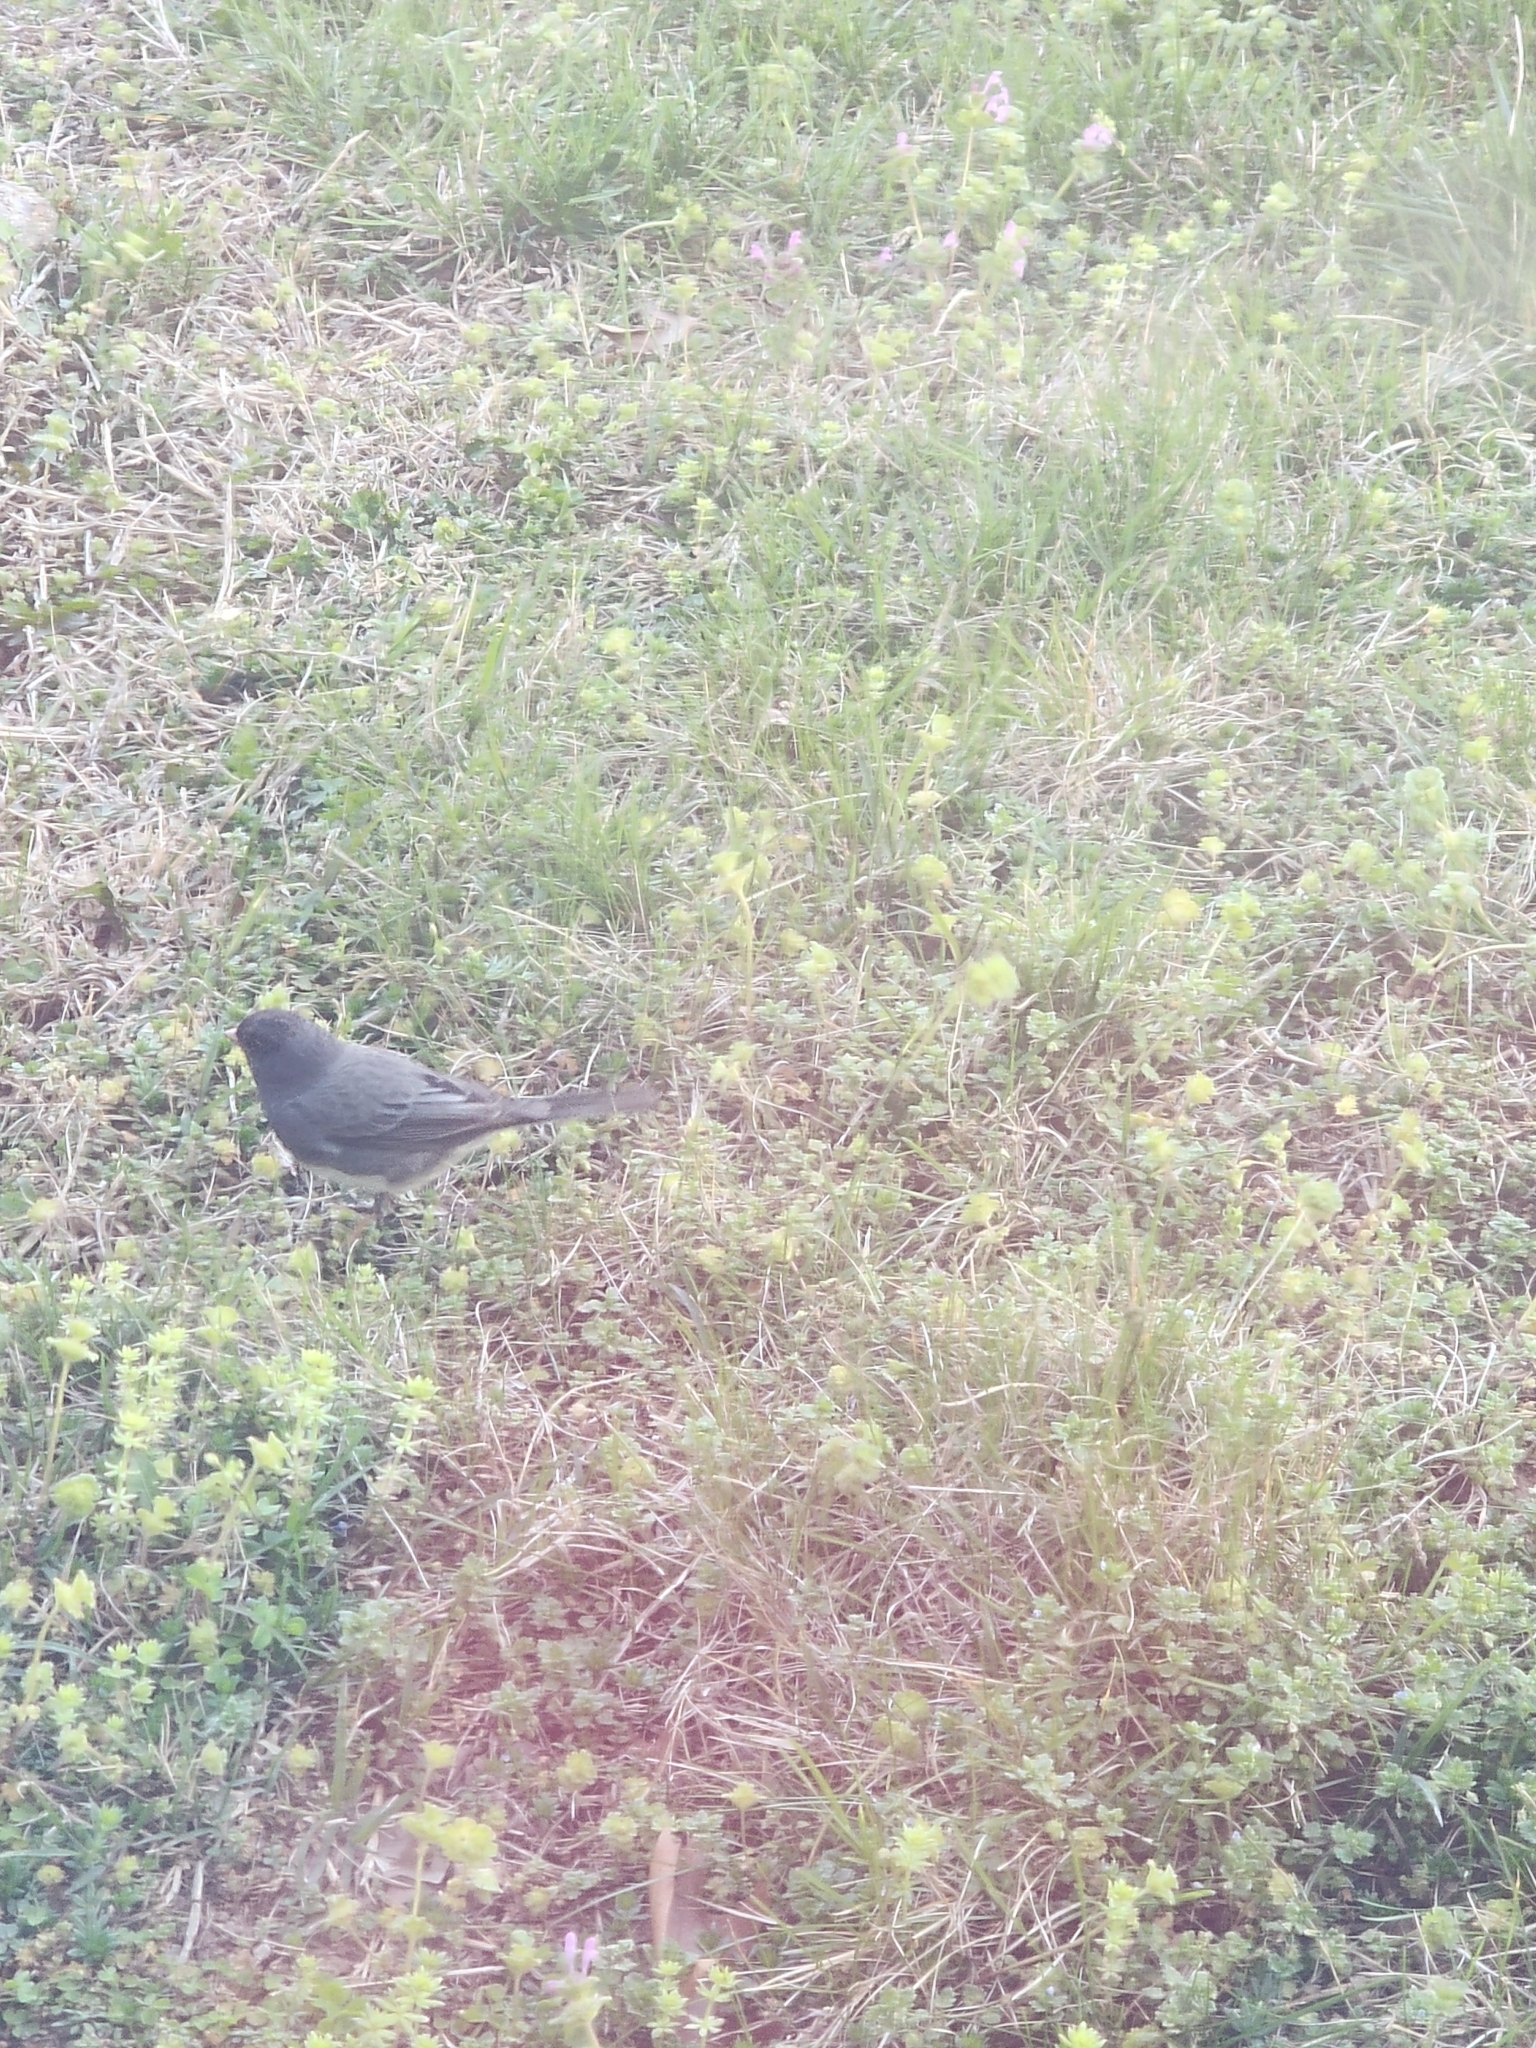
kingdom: Animalia
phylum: Chordata
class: Aves
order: Passeriformes
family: Passerellidae
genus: Junco
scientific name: Junco hyemalis
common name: Dark-eyed junco
